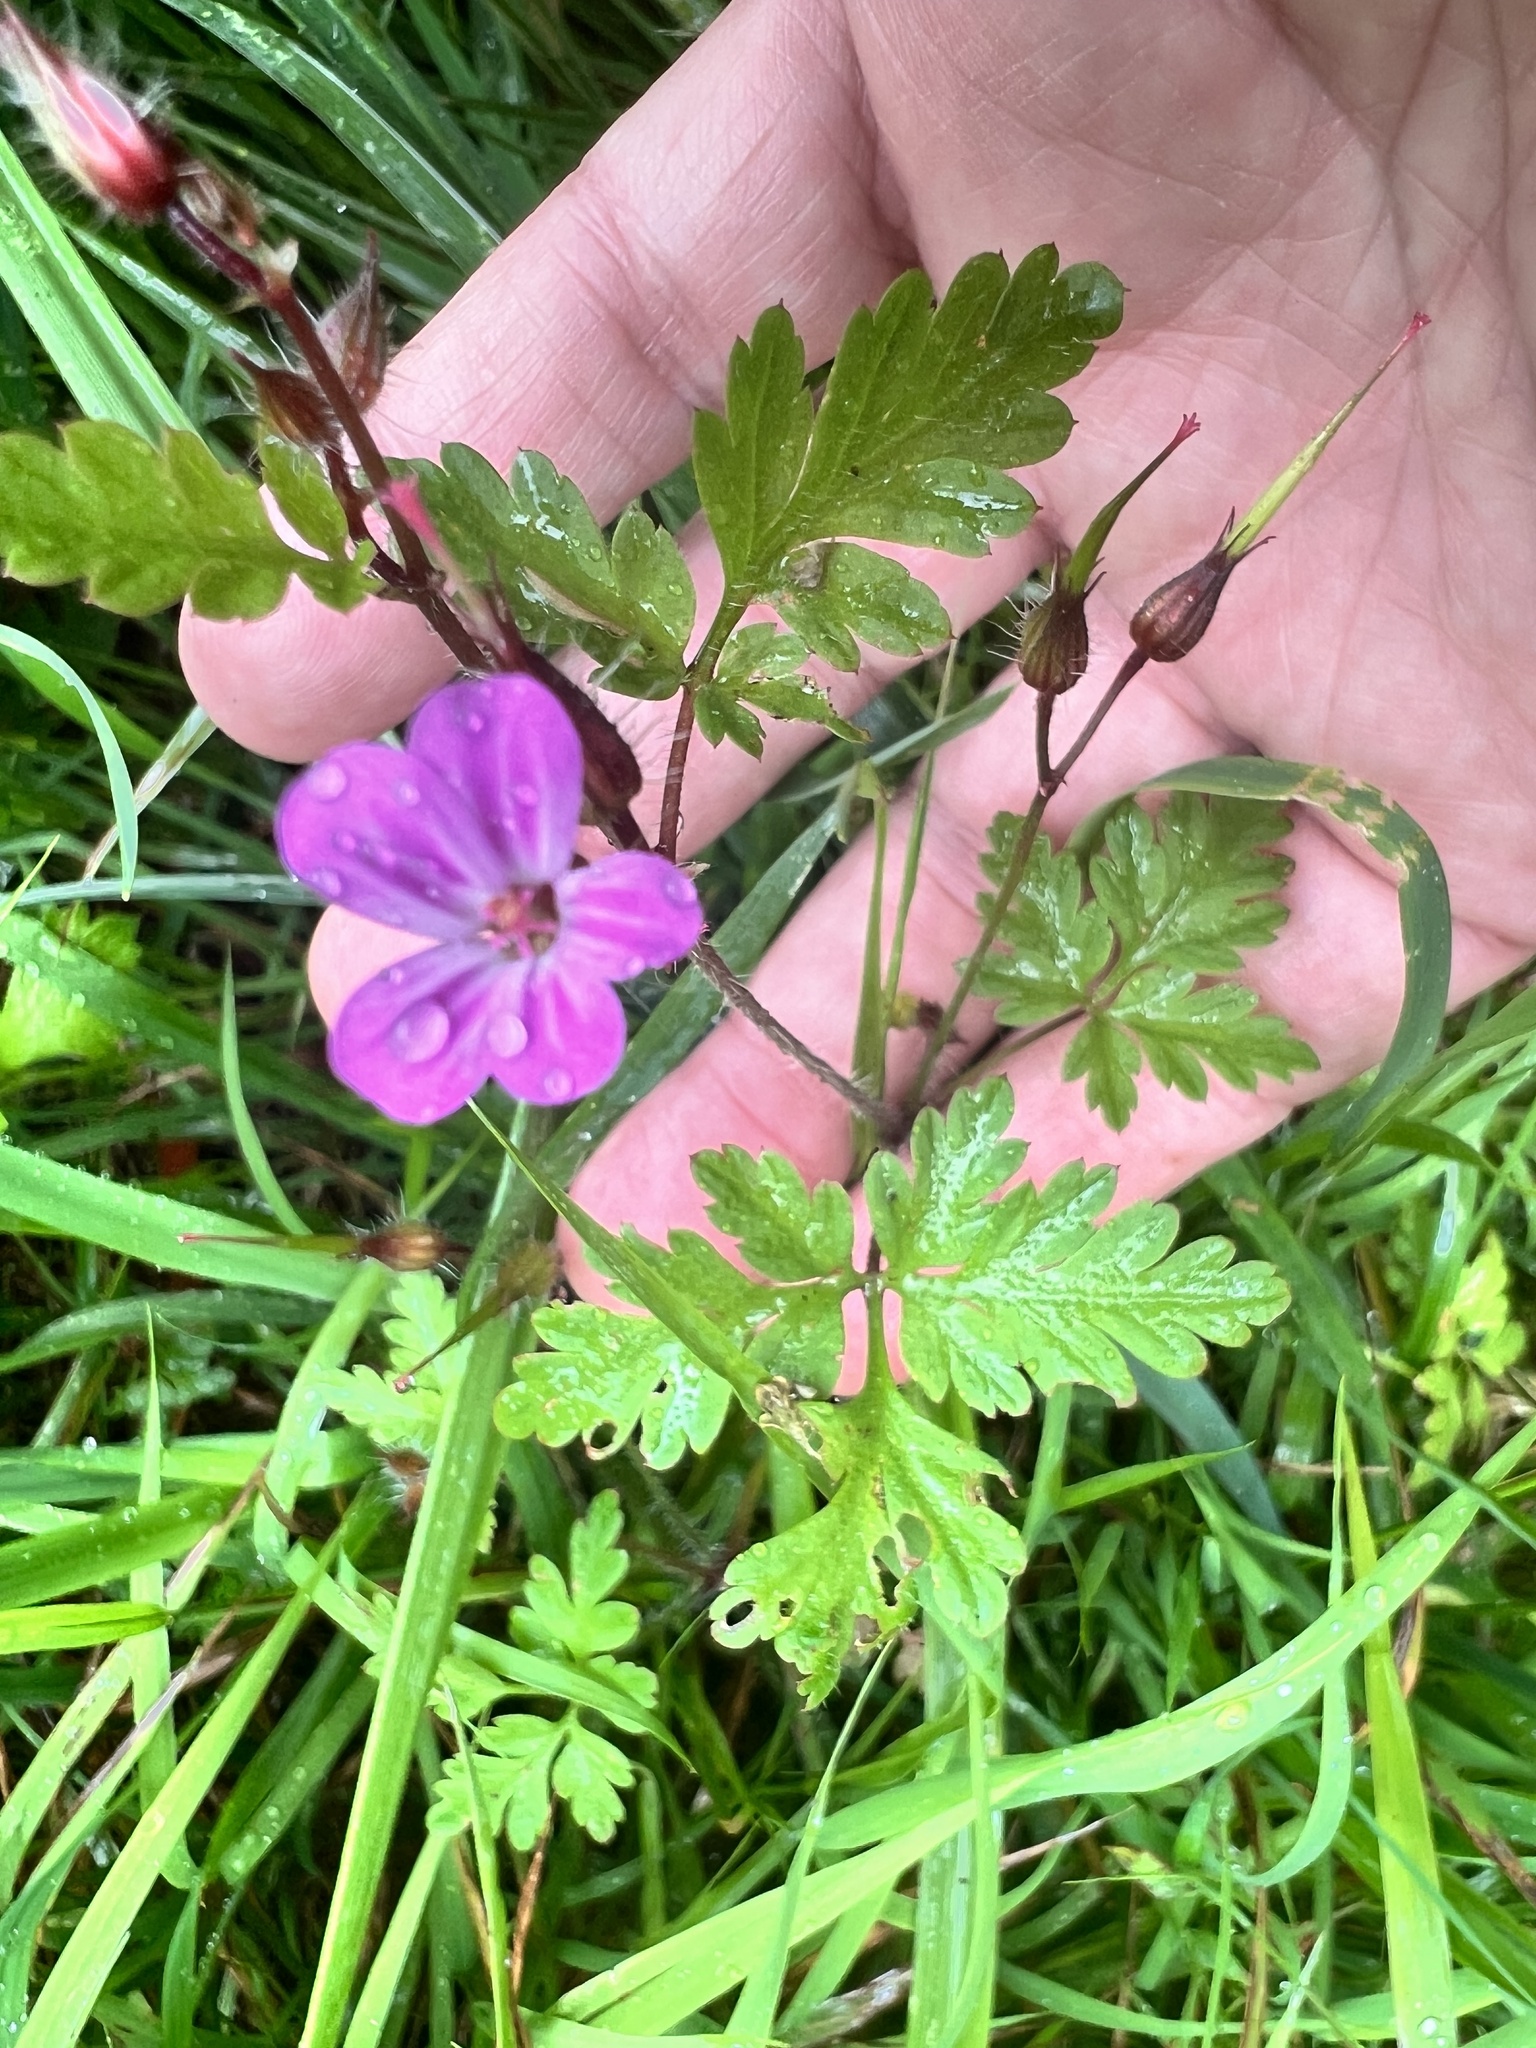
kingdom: Plantae
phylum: Tracheophyta
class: Magnoliopsida
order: Geraniales
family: Geraniaceae
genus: Geranium
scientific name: Geranium robertianum
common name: Herb-robert
